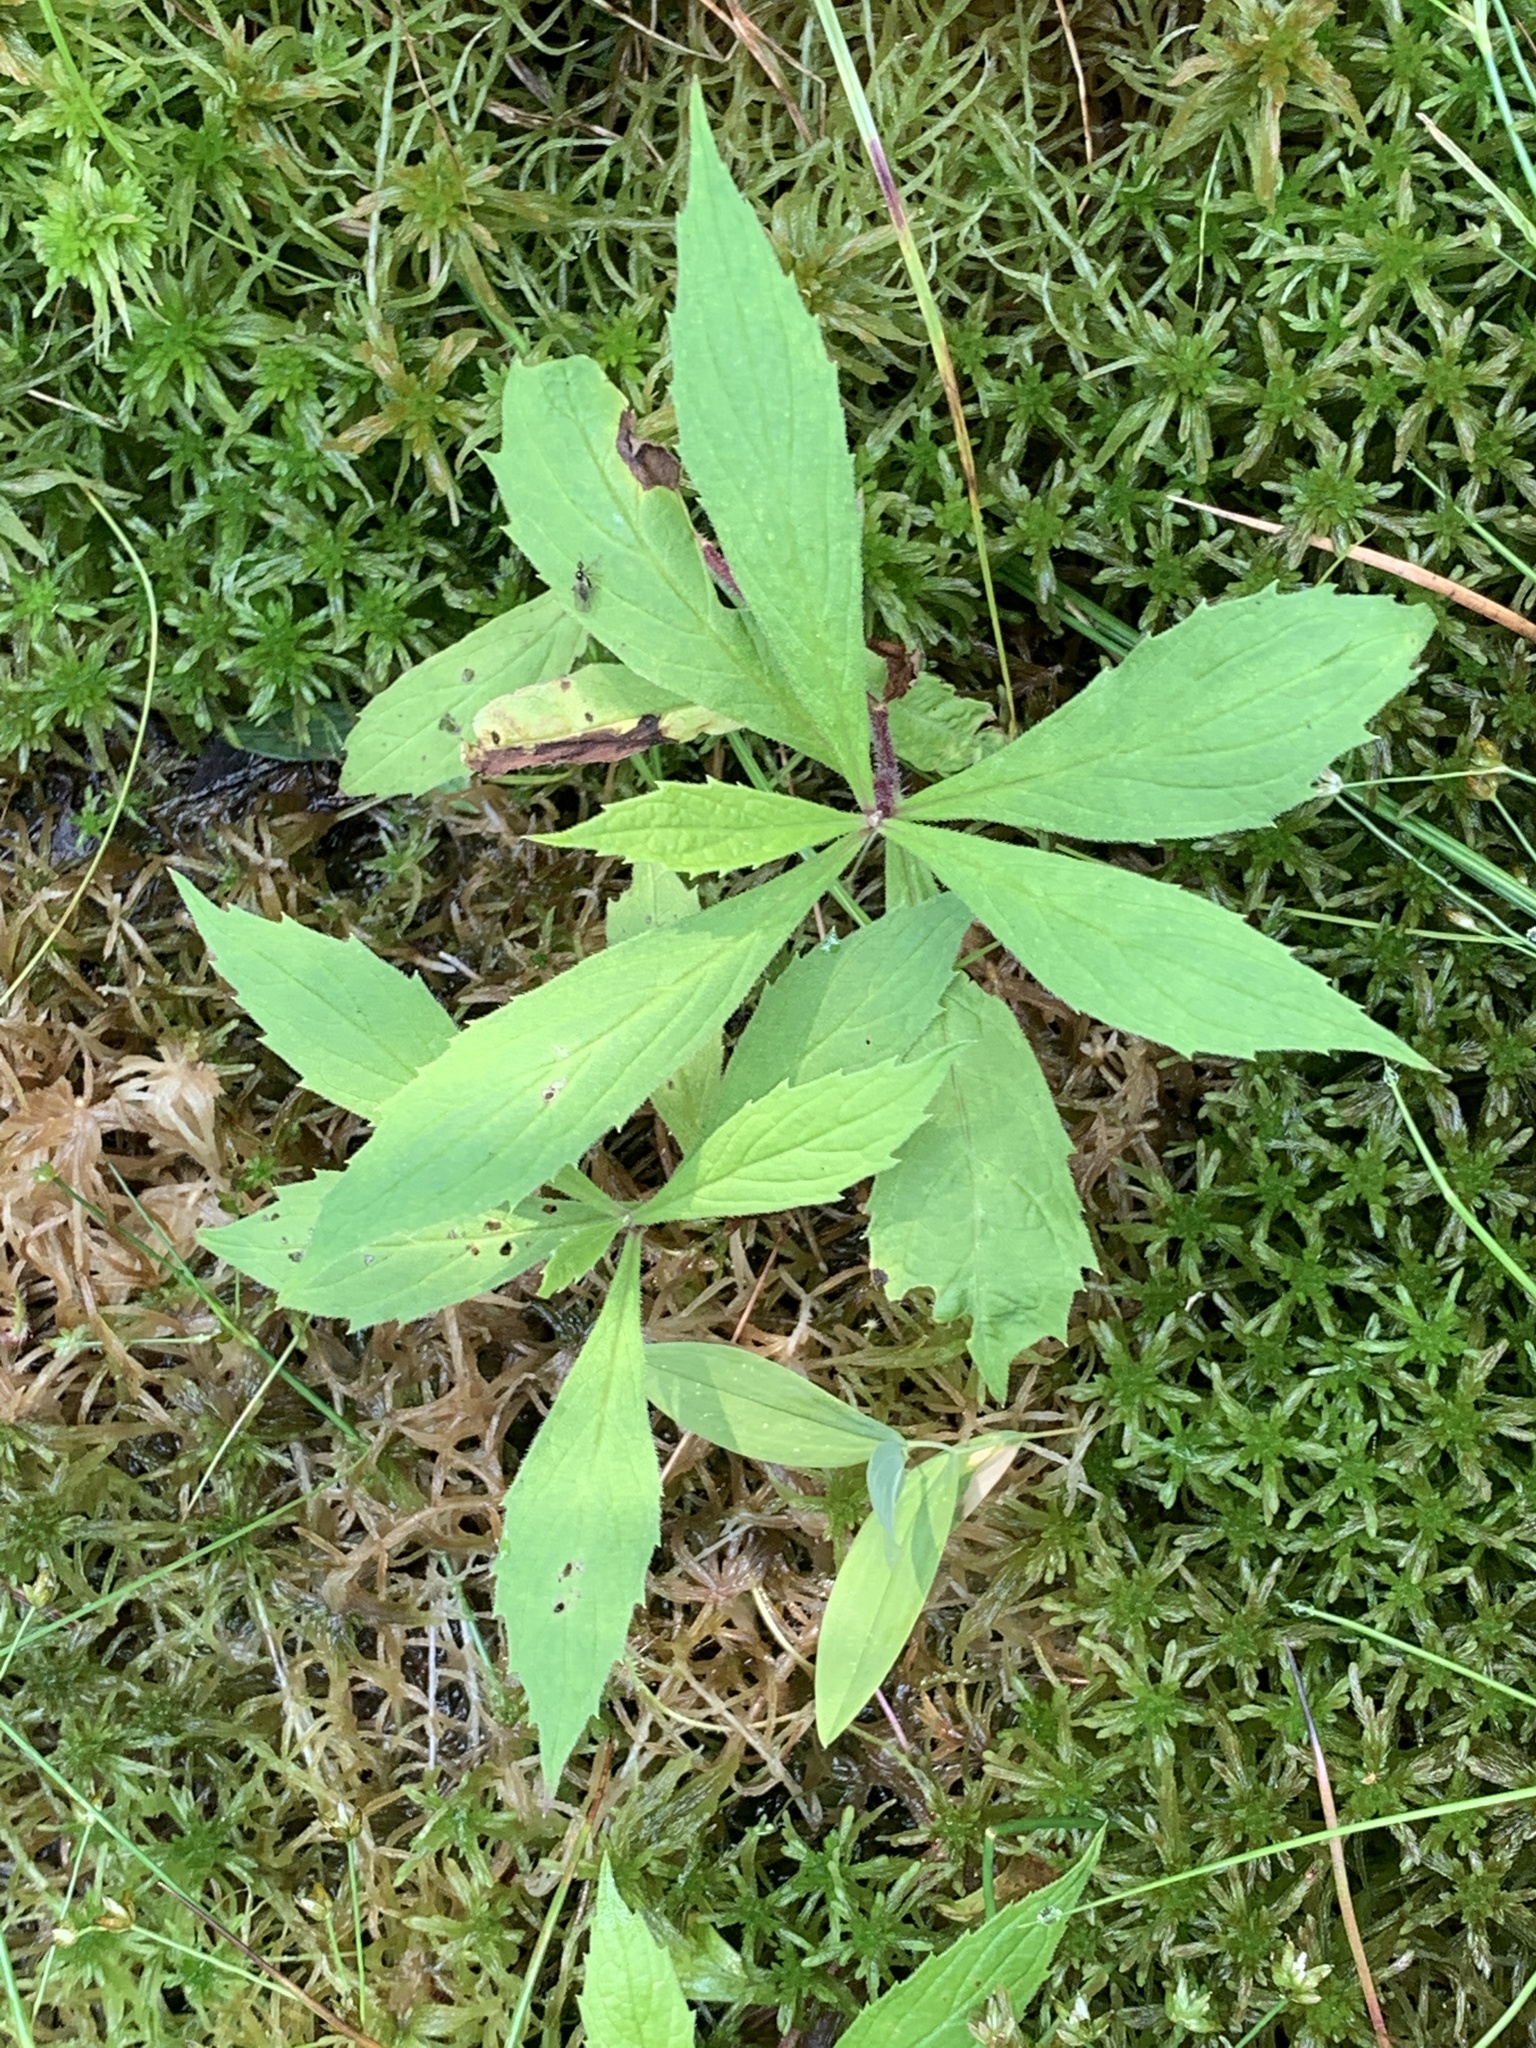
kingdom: Plantae
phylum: Tracheophyta
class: Magnoliopsida
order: Asterales
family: Asteraceae
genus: Oclemena
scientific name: Oclemena acuminata
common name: Mountain aster
